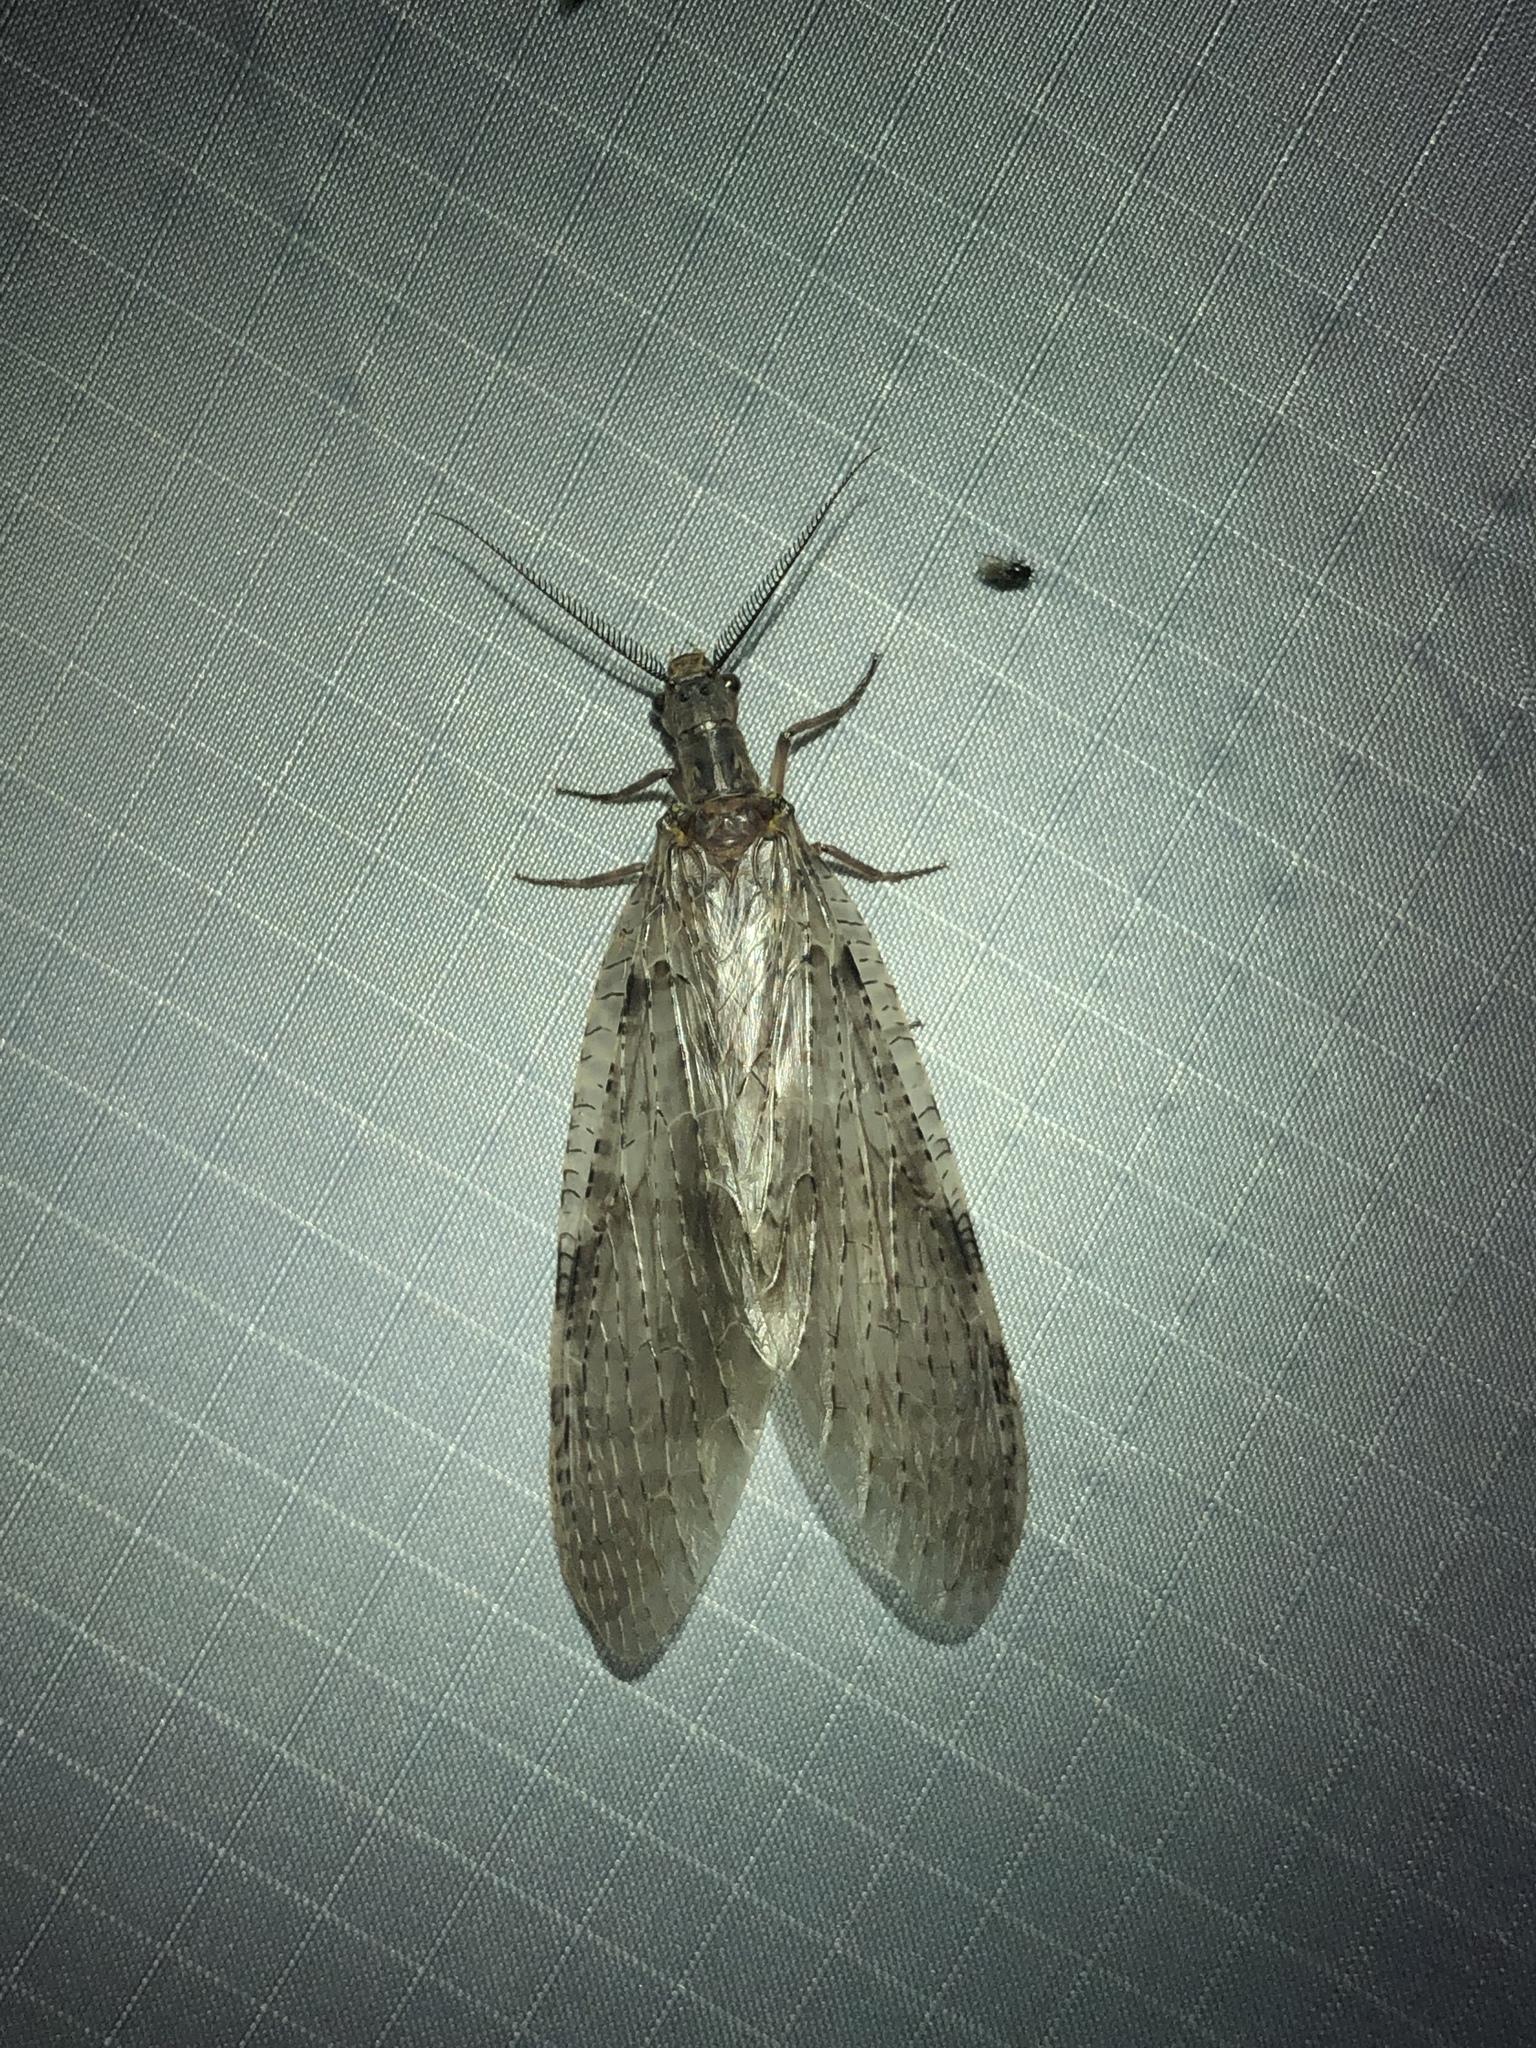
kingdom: Animalia
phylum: Arthropoda
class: Insecta
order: Megaloptera
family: Corydalidae
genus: Chauliodes
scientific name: Chauliodes pectinicornis
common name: Summer fishfly
